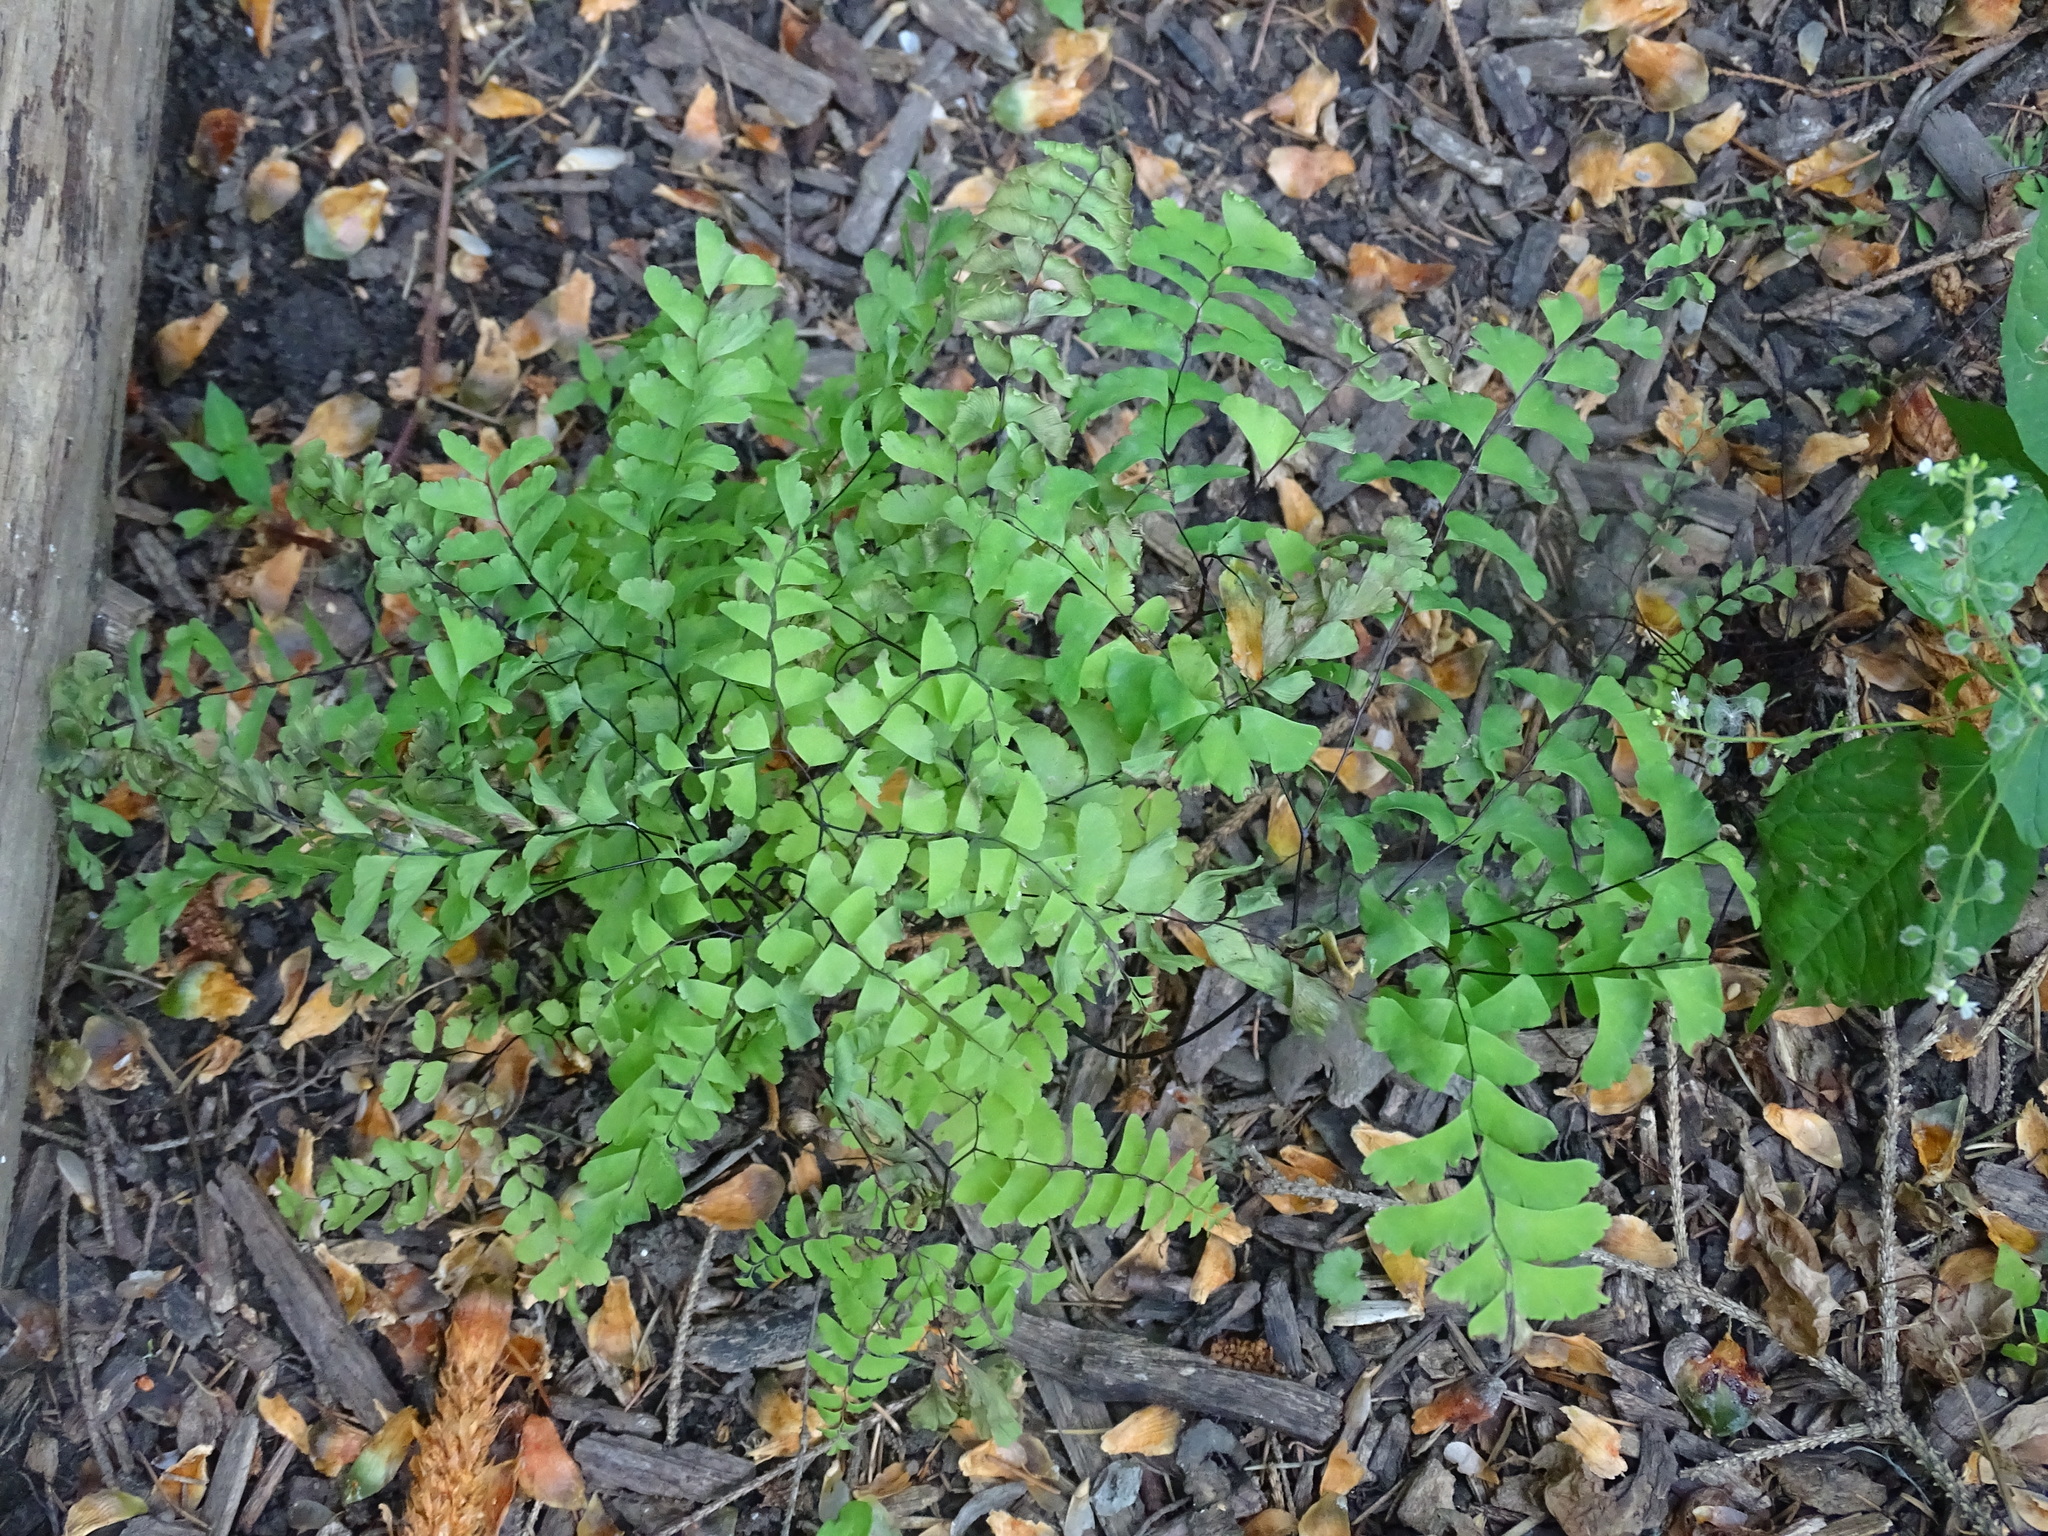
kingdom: Plantae
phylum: Tracheophyta
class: Polypodiopsida
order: Polypodiales
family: Pteridaceae
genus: Adiantum
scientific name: Adiantum pedatum
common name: Five-finger fern
